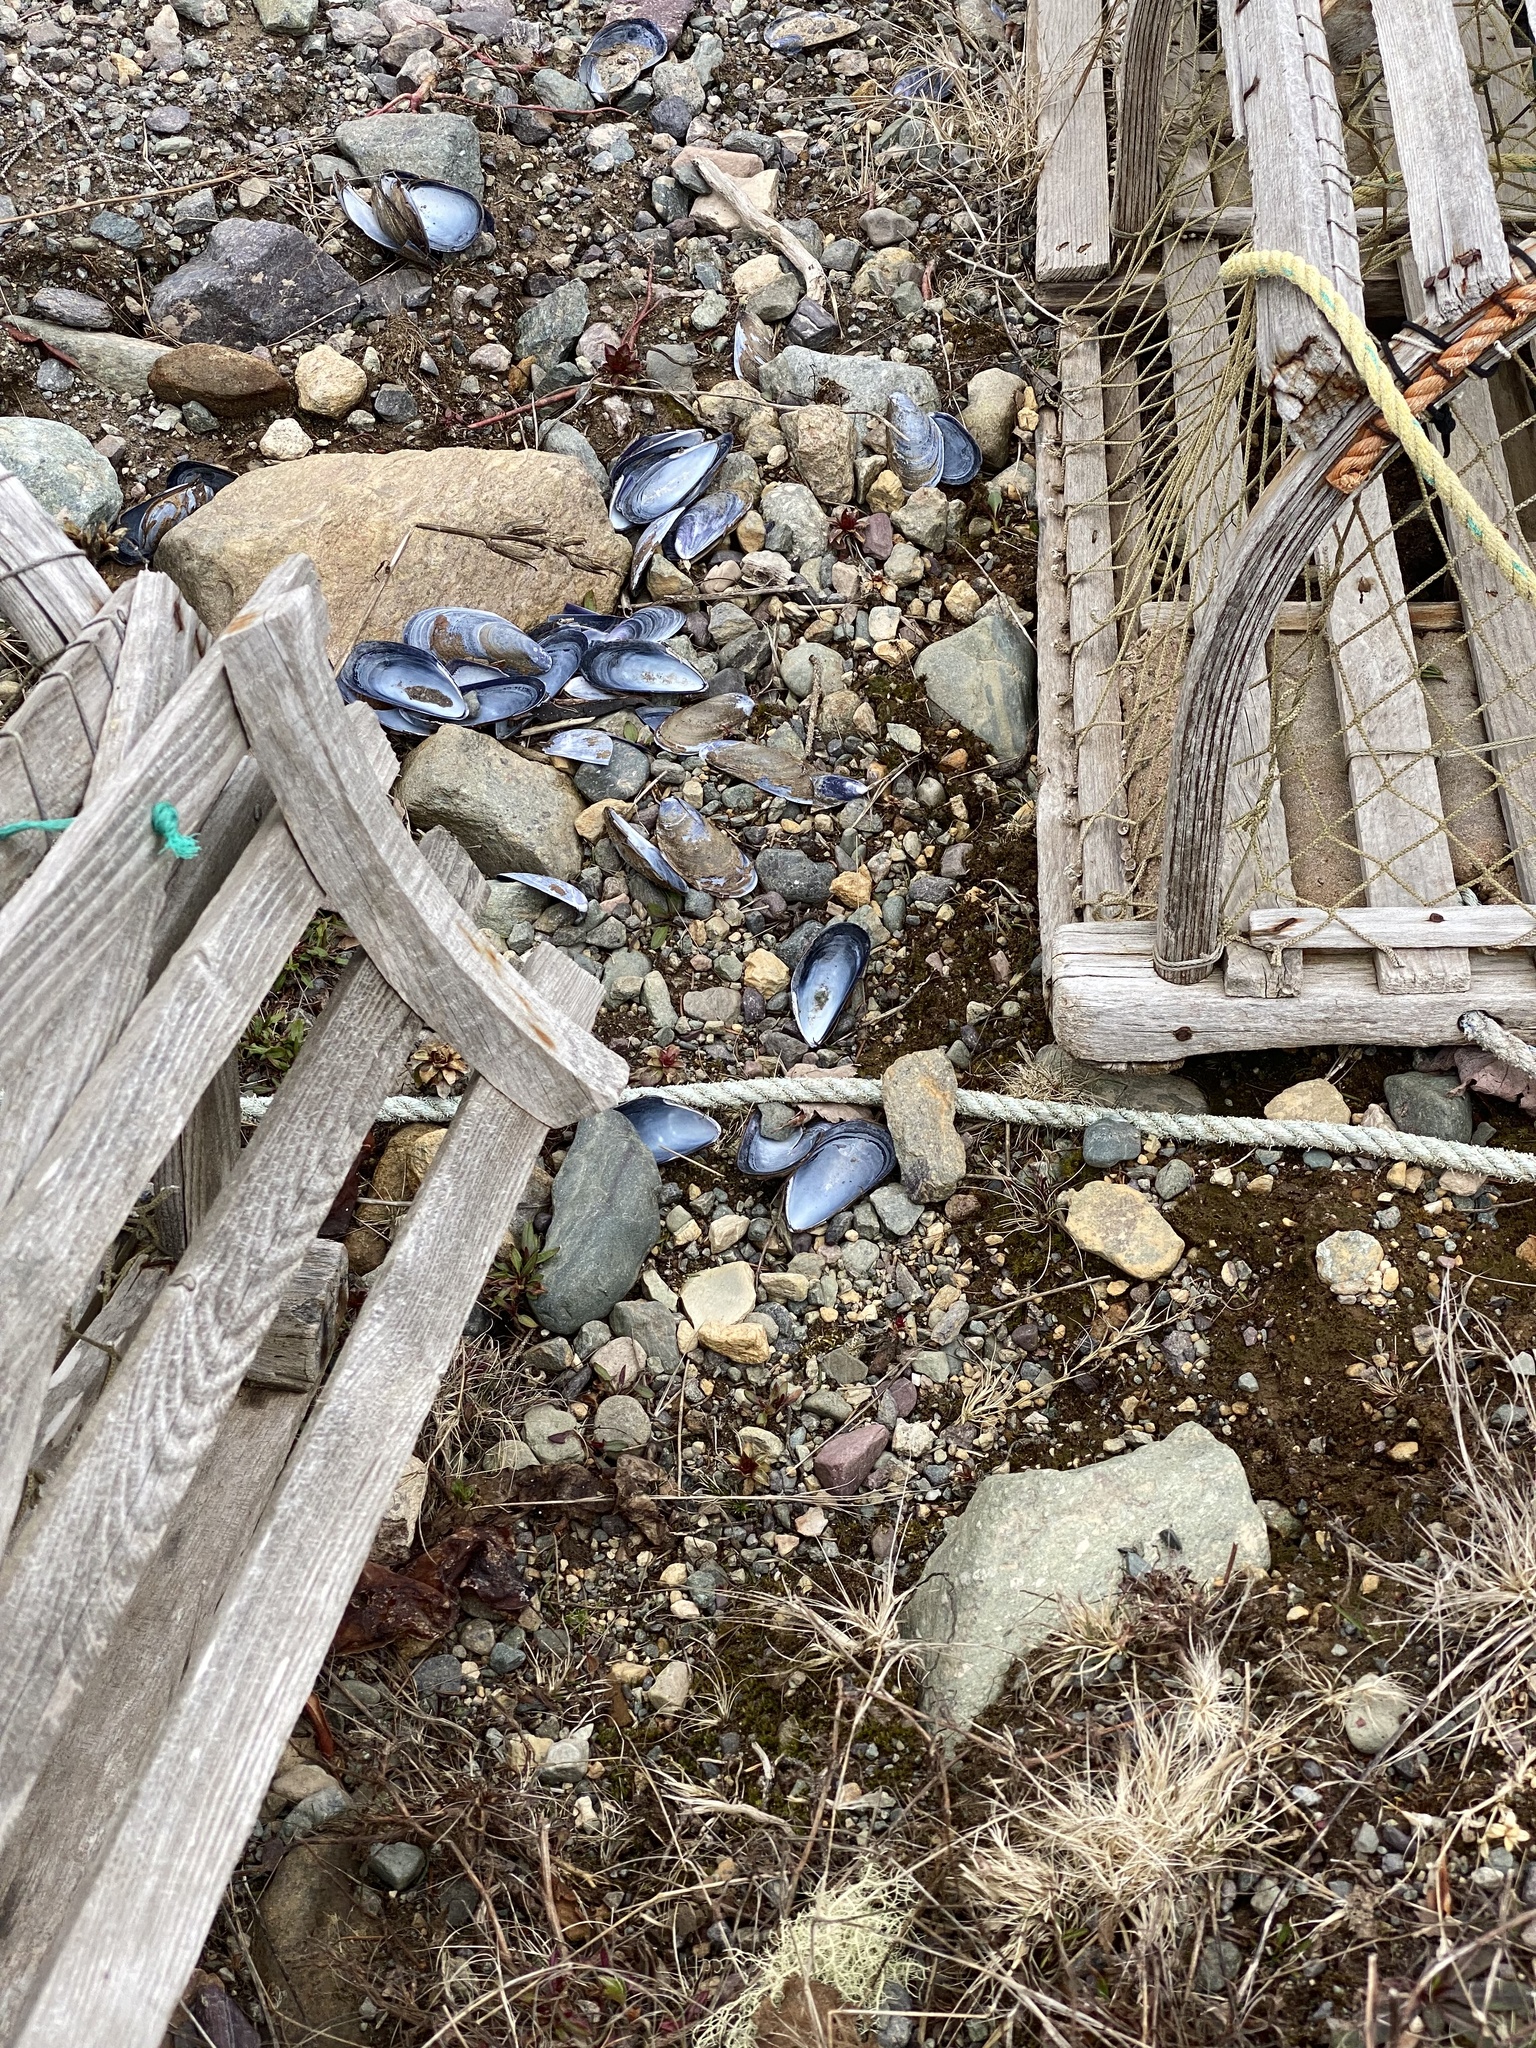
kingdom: Animalia
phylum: Mollusca
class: Bivalvia
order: Mytilida
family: Mytilidae
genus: Mytilus
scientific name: Mytilus edulis
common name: Blue mussel
